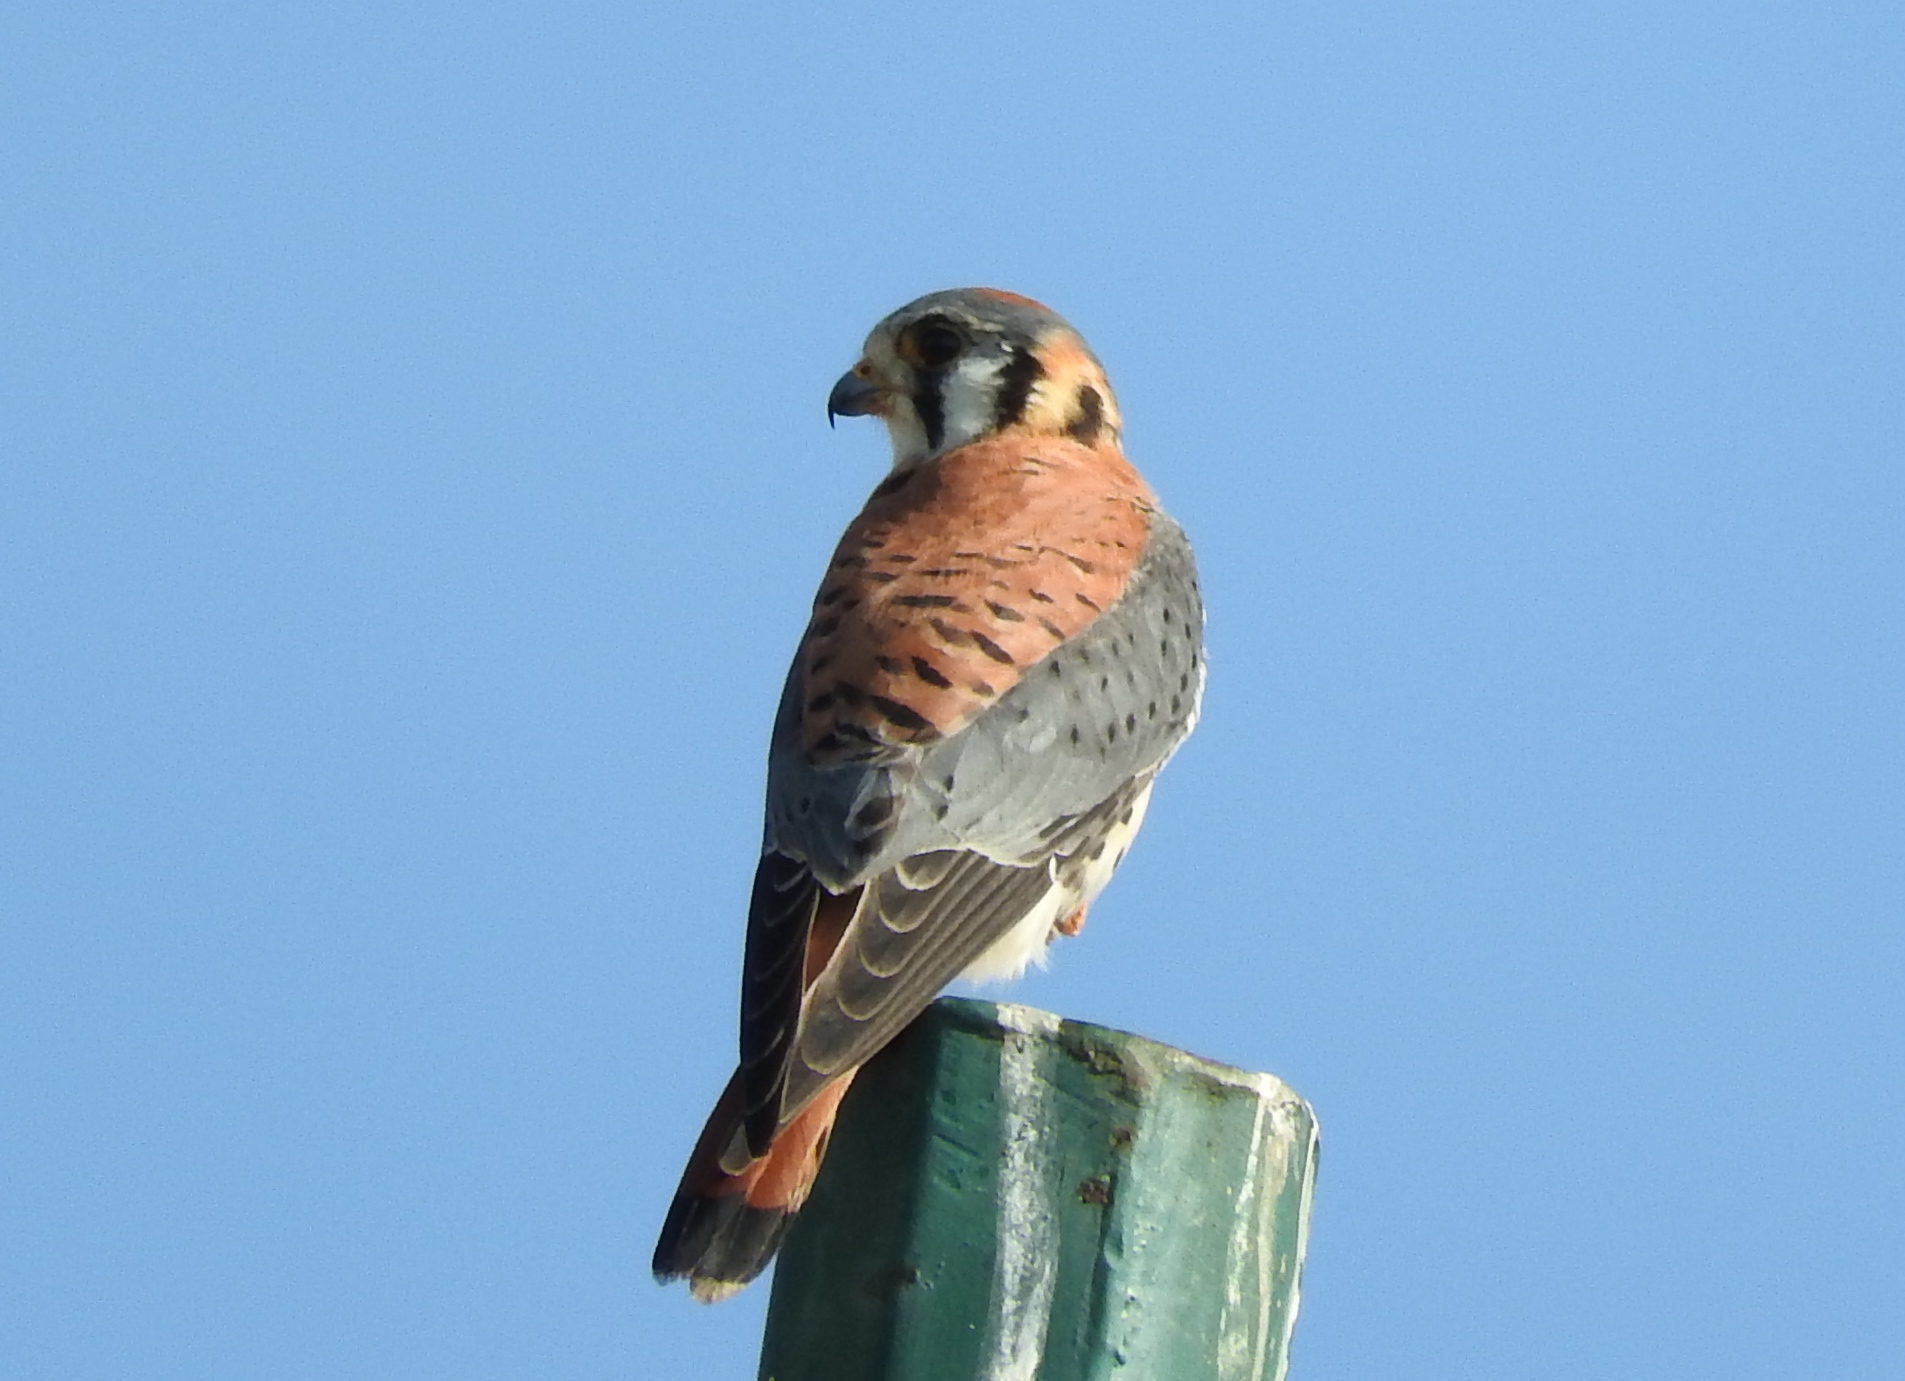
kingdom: Animalia
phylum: Chordata
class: Aves
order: Falconiformes
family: Falconidae
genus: Falco
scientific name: Falco sparverius
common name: American kestrel
